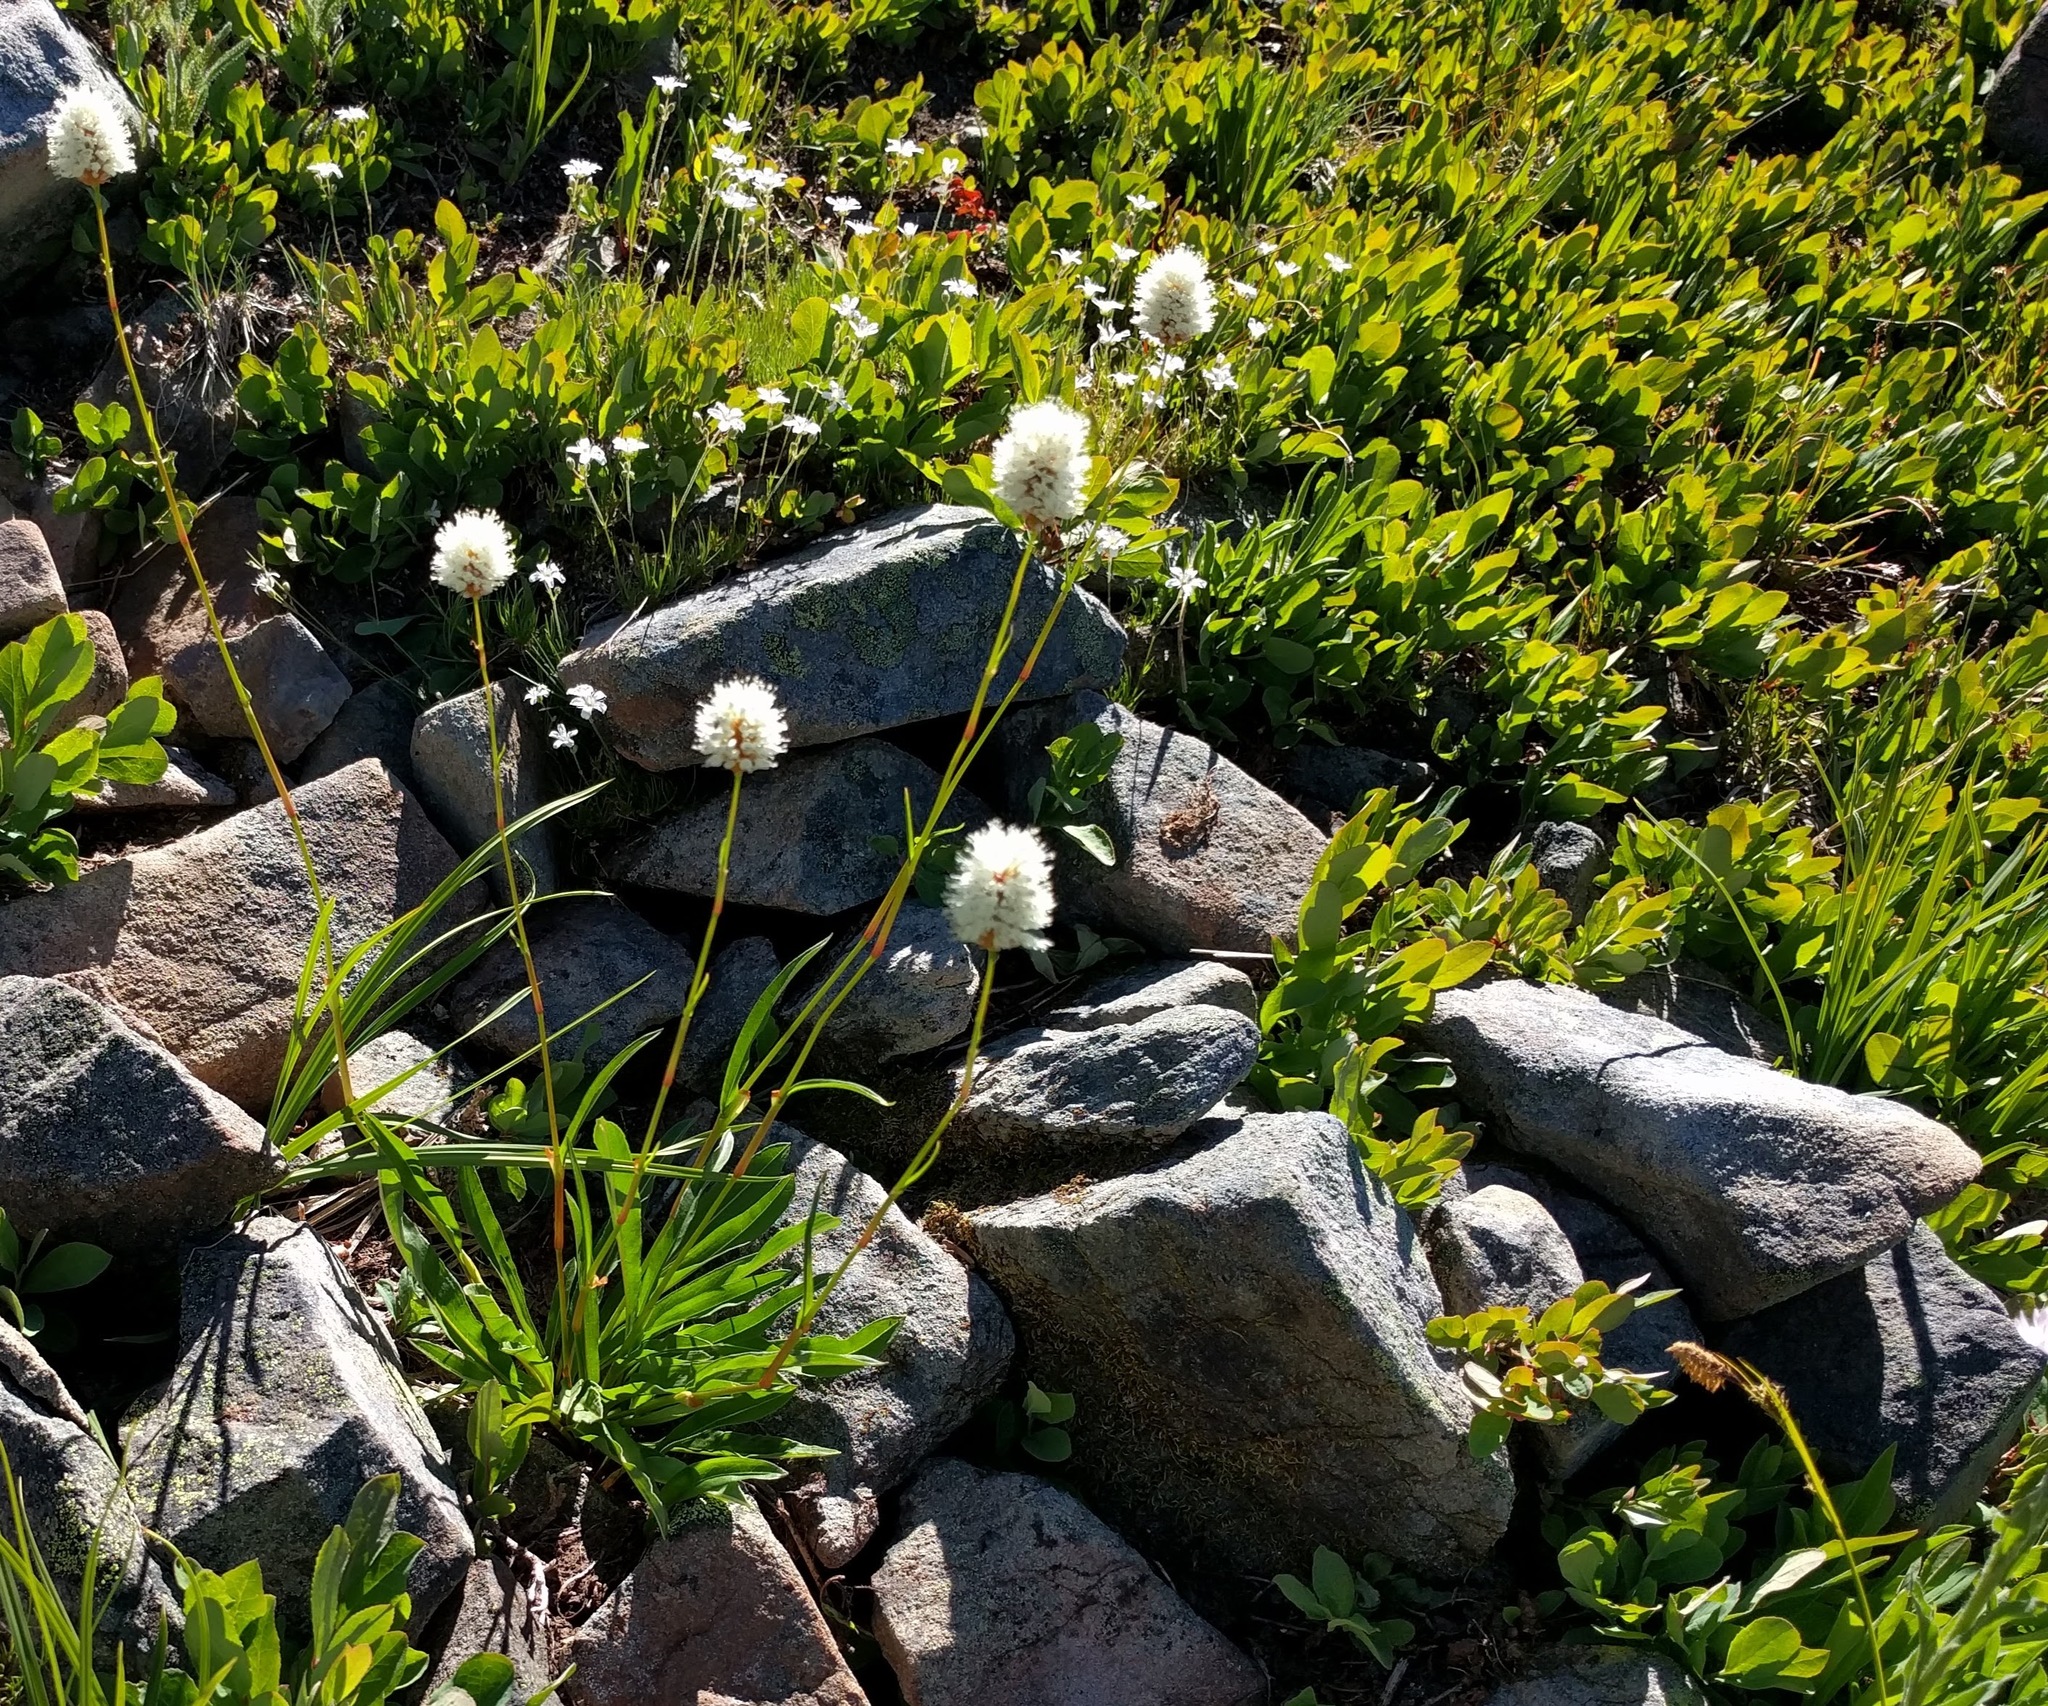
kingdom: Plantae
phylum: Tracheophyta
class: Magnoliopsida
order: Caryophyllales
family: Polygonaceae
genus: Bistorta
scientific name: Bistorta bistortoides
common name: American bistort
